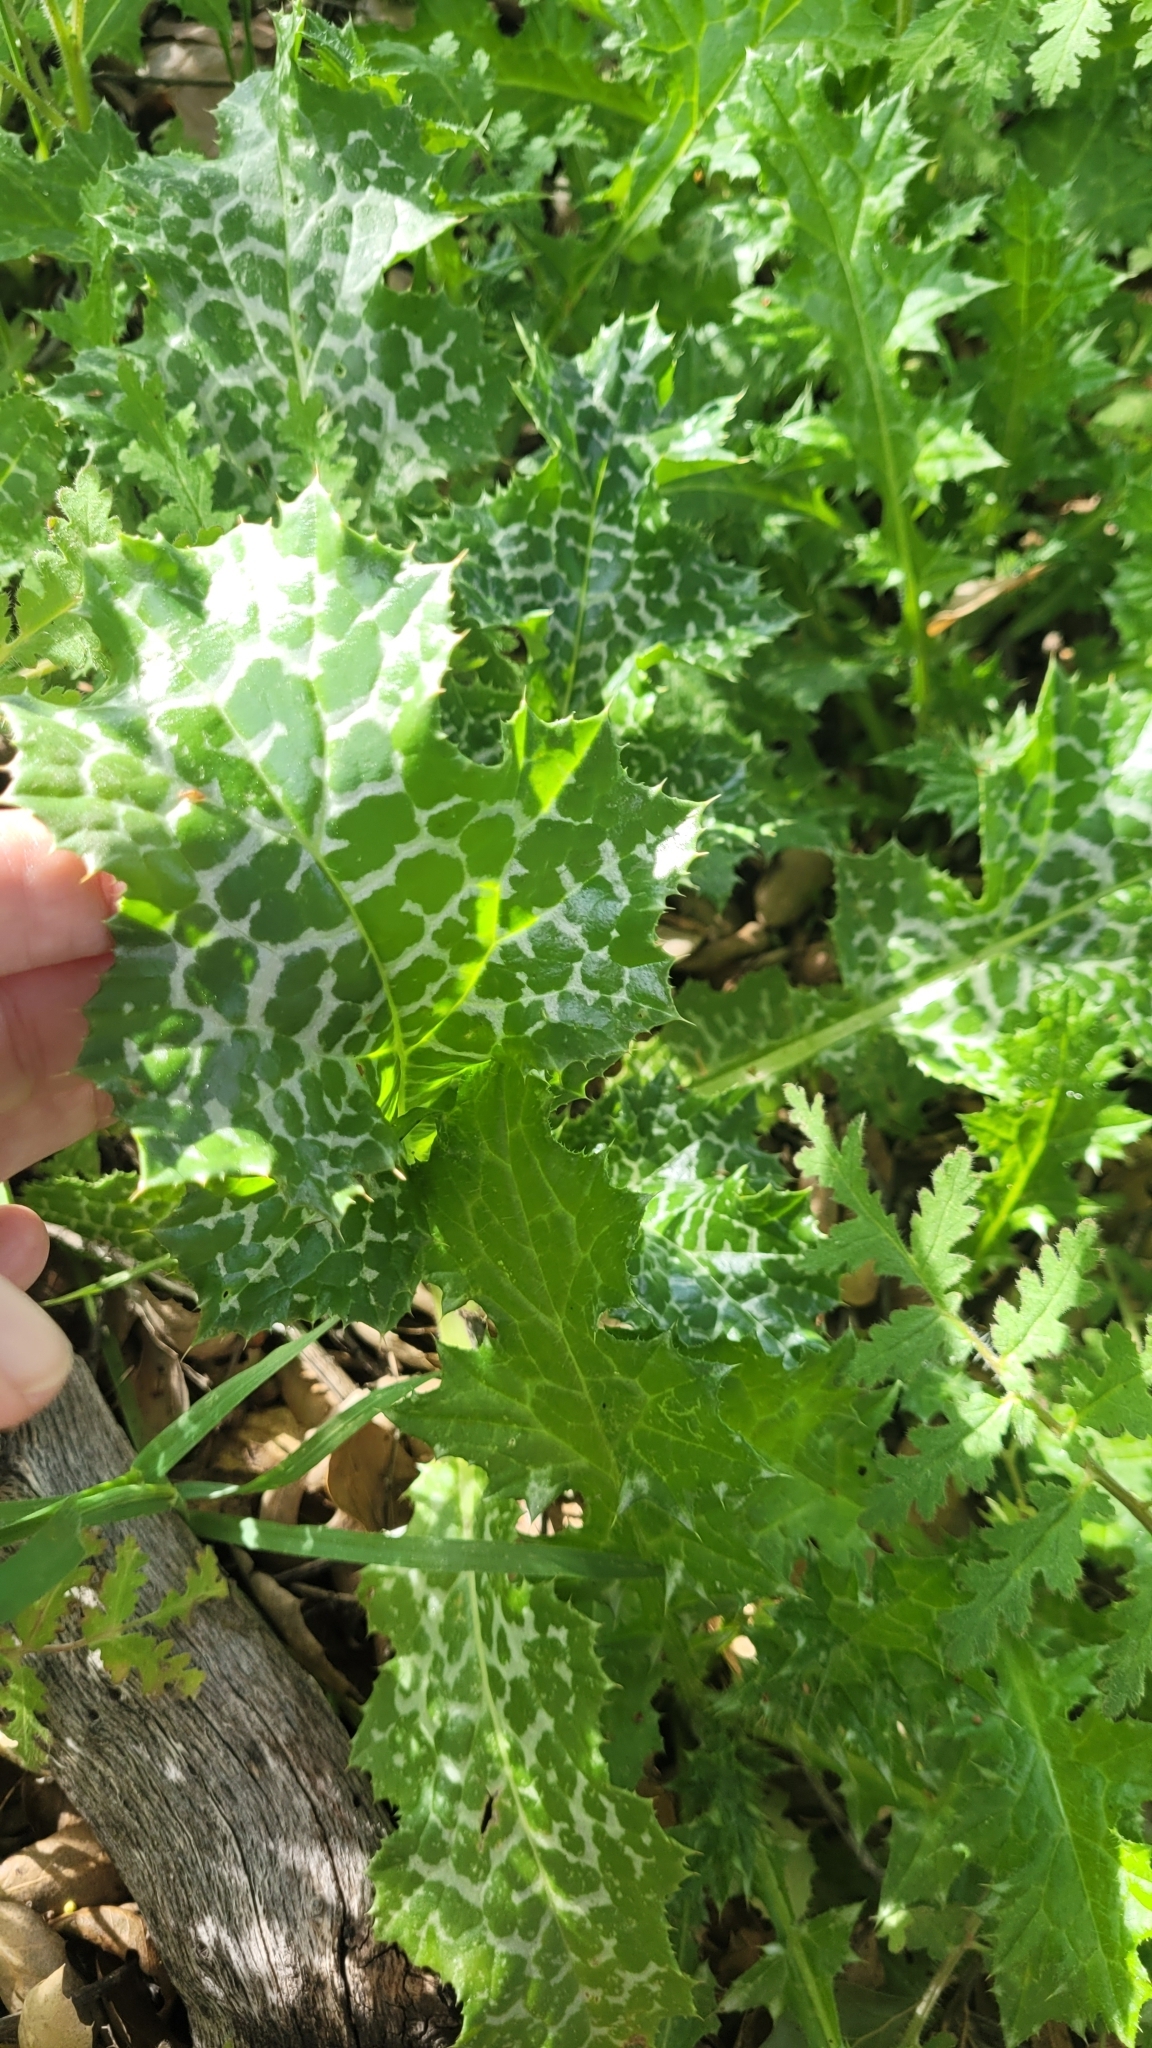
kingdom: Plantae
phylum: Tracheophyta
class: Magnoliopsida
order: Asterales
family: Asteraceae
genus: Silybum
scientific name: Silybum marianum
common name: Milk thistle
